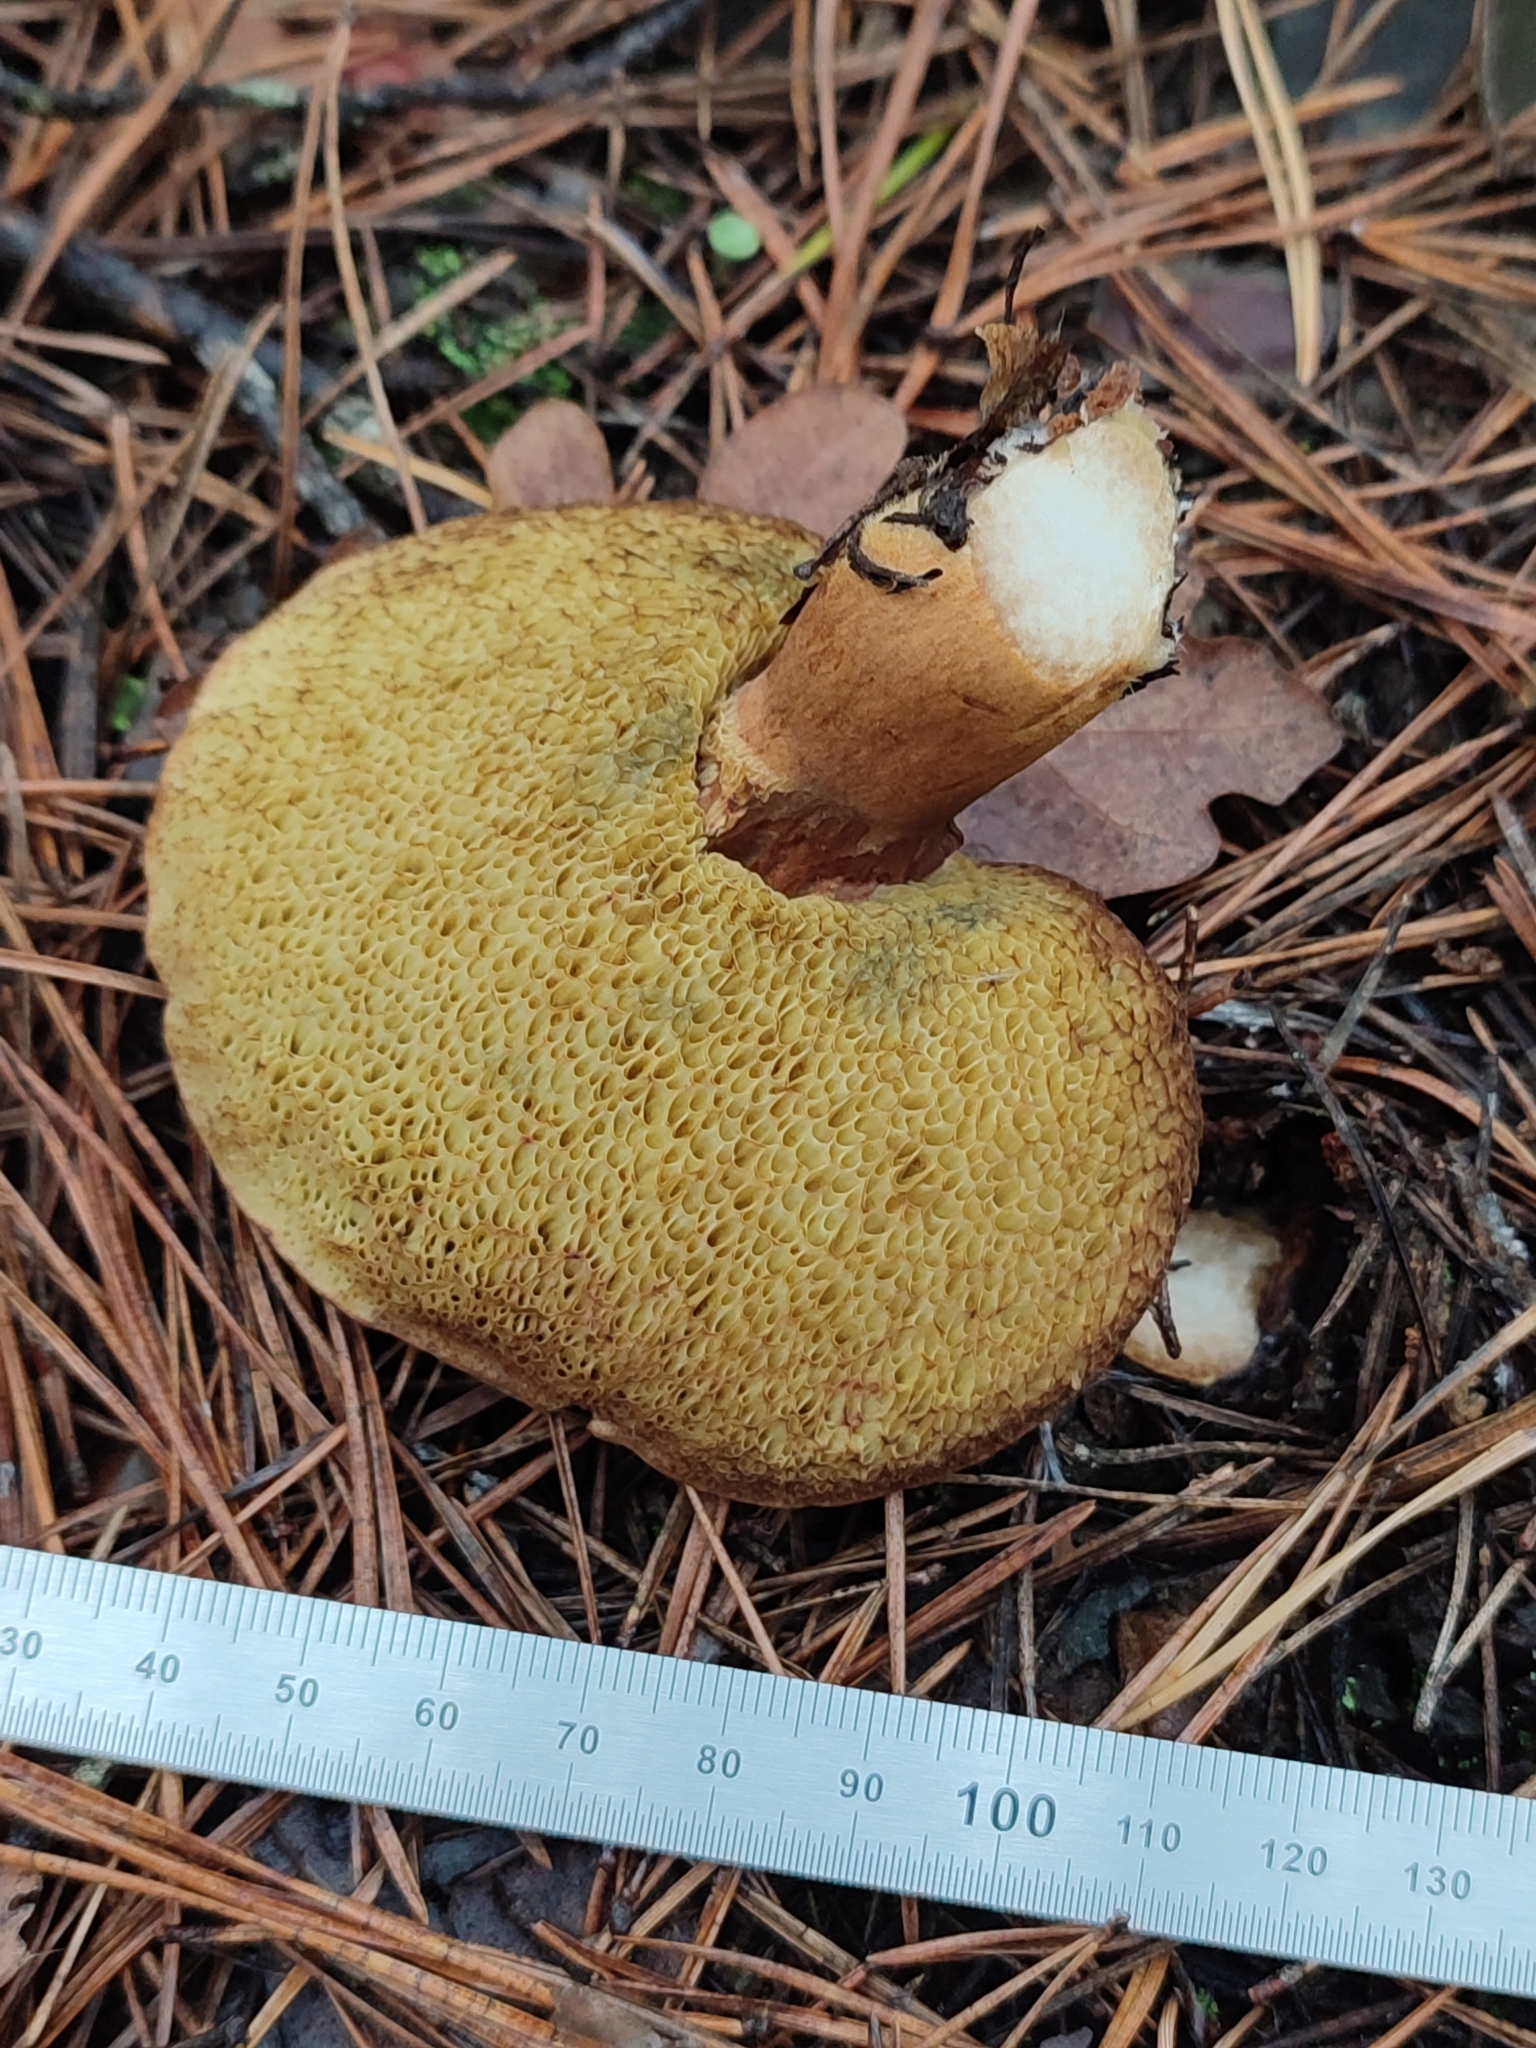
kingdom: Fungi
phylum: Basidiomycota
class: Agaricomycetes
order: Boletales
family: Boletaceae
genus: Imleria
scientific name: Imleria badia
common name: Bay bolete
